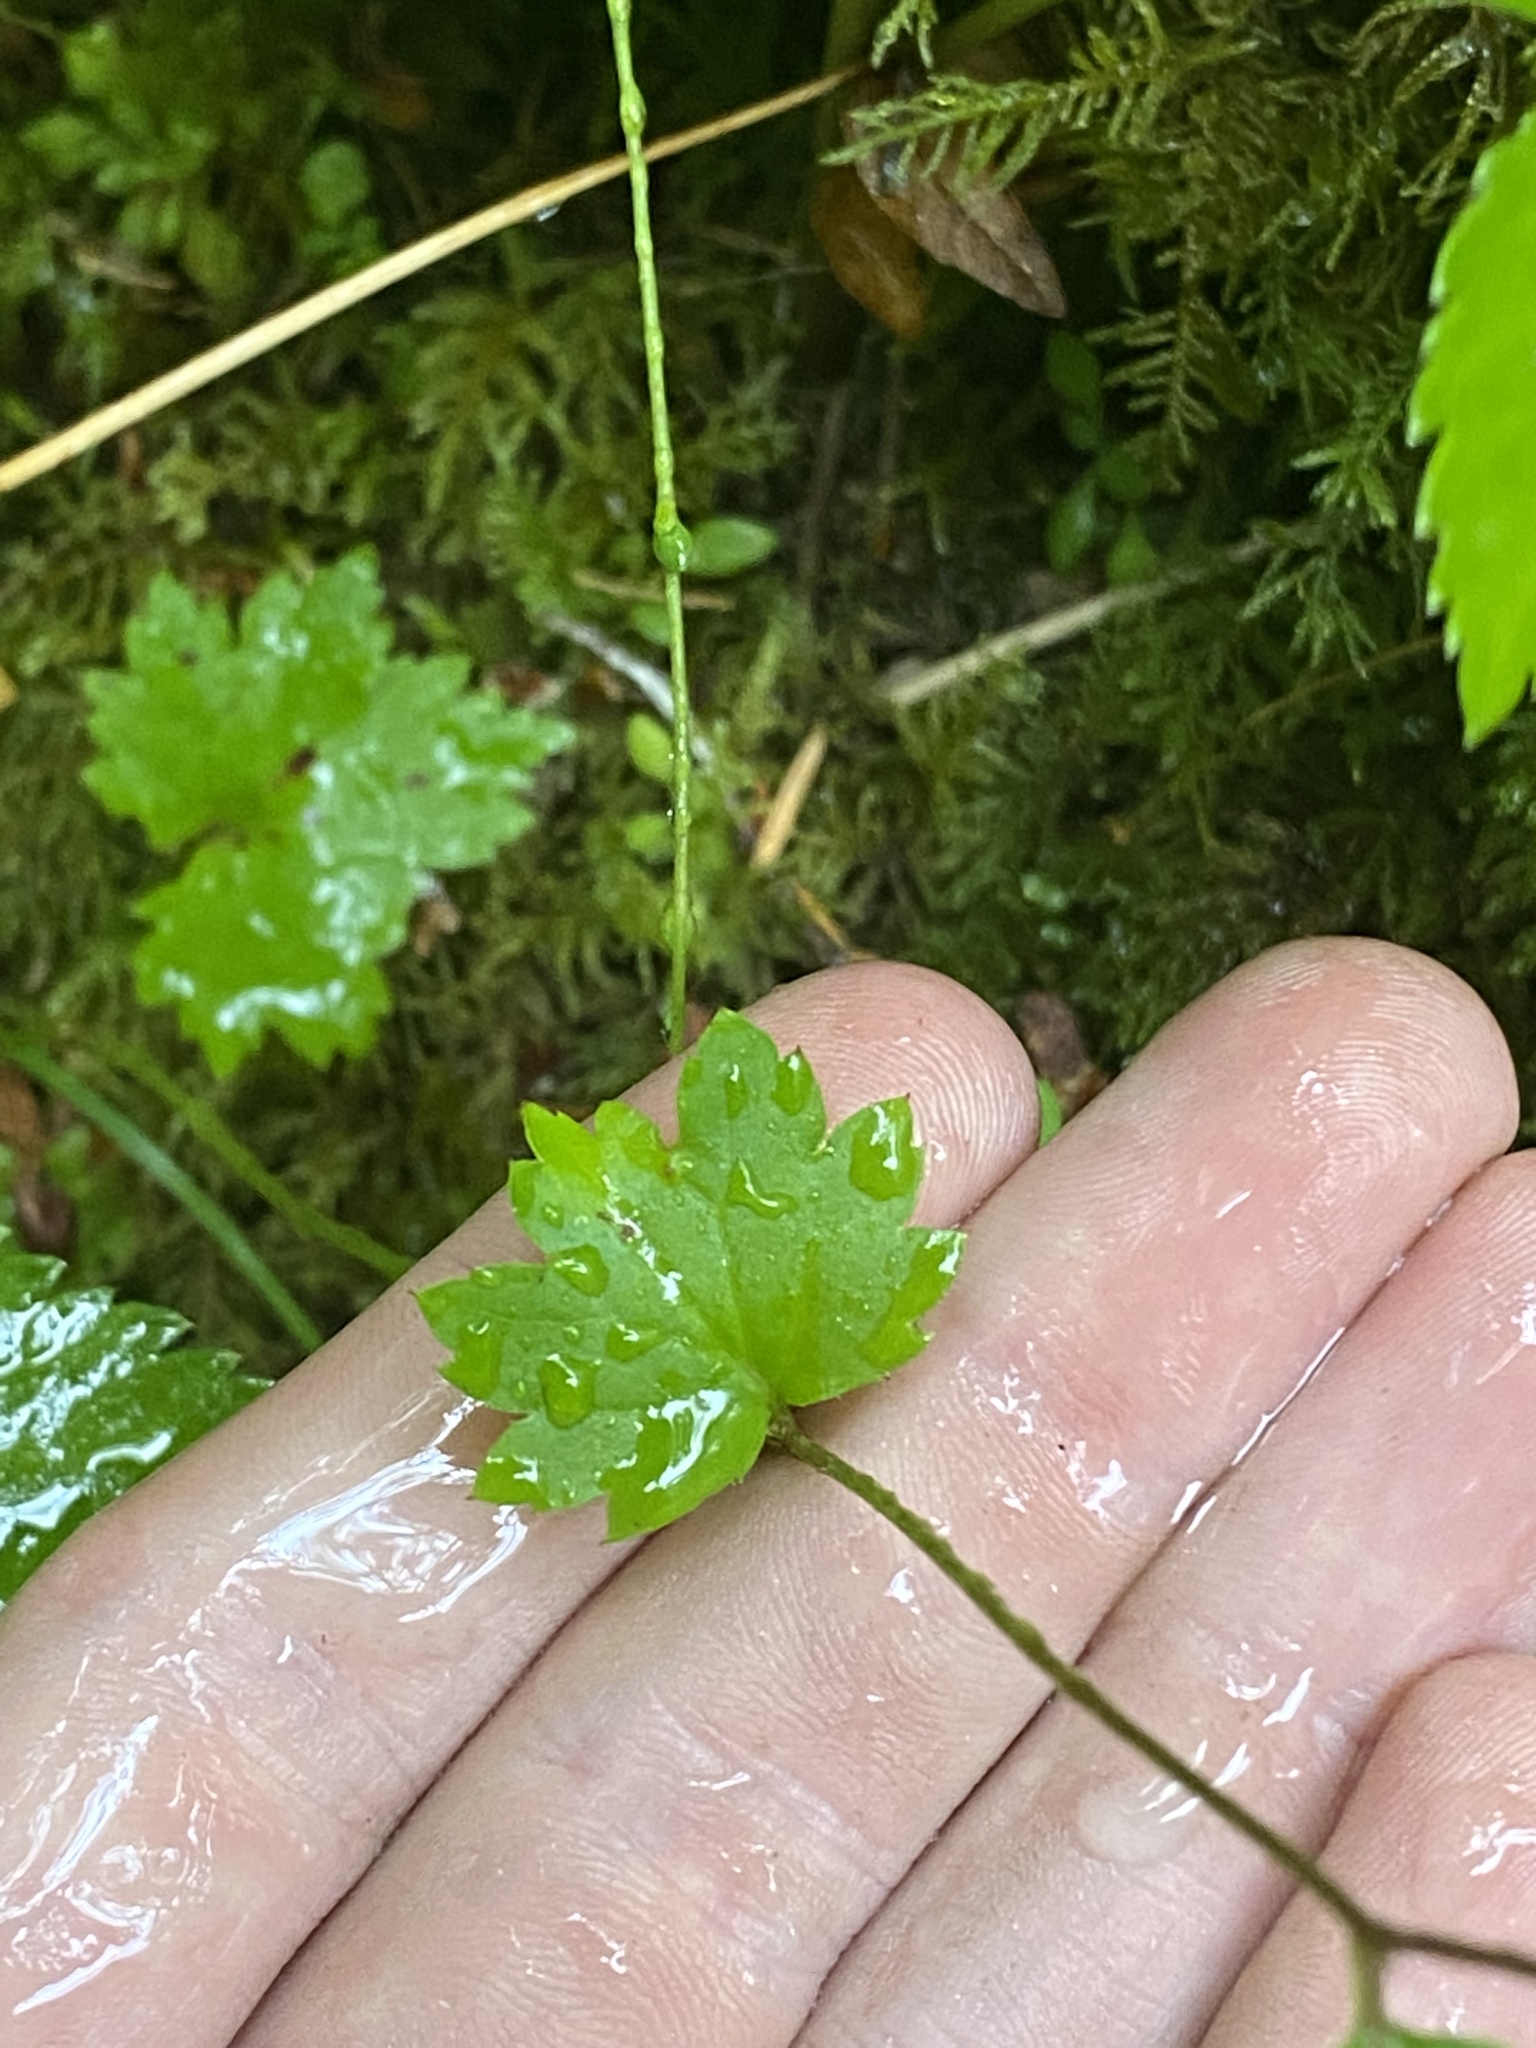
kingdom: Plantae
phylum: Tracheophyta
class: Magnoliopsida
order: Saxifragales
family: Saxifragaceae
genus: Boykinia
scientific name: Boykinia occidentalis
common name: Coast boykinia
